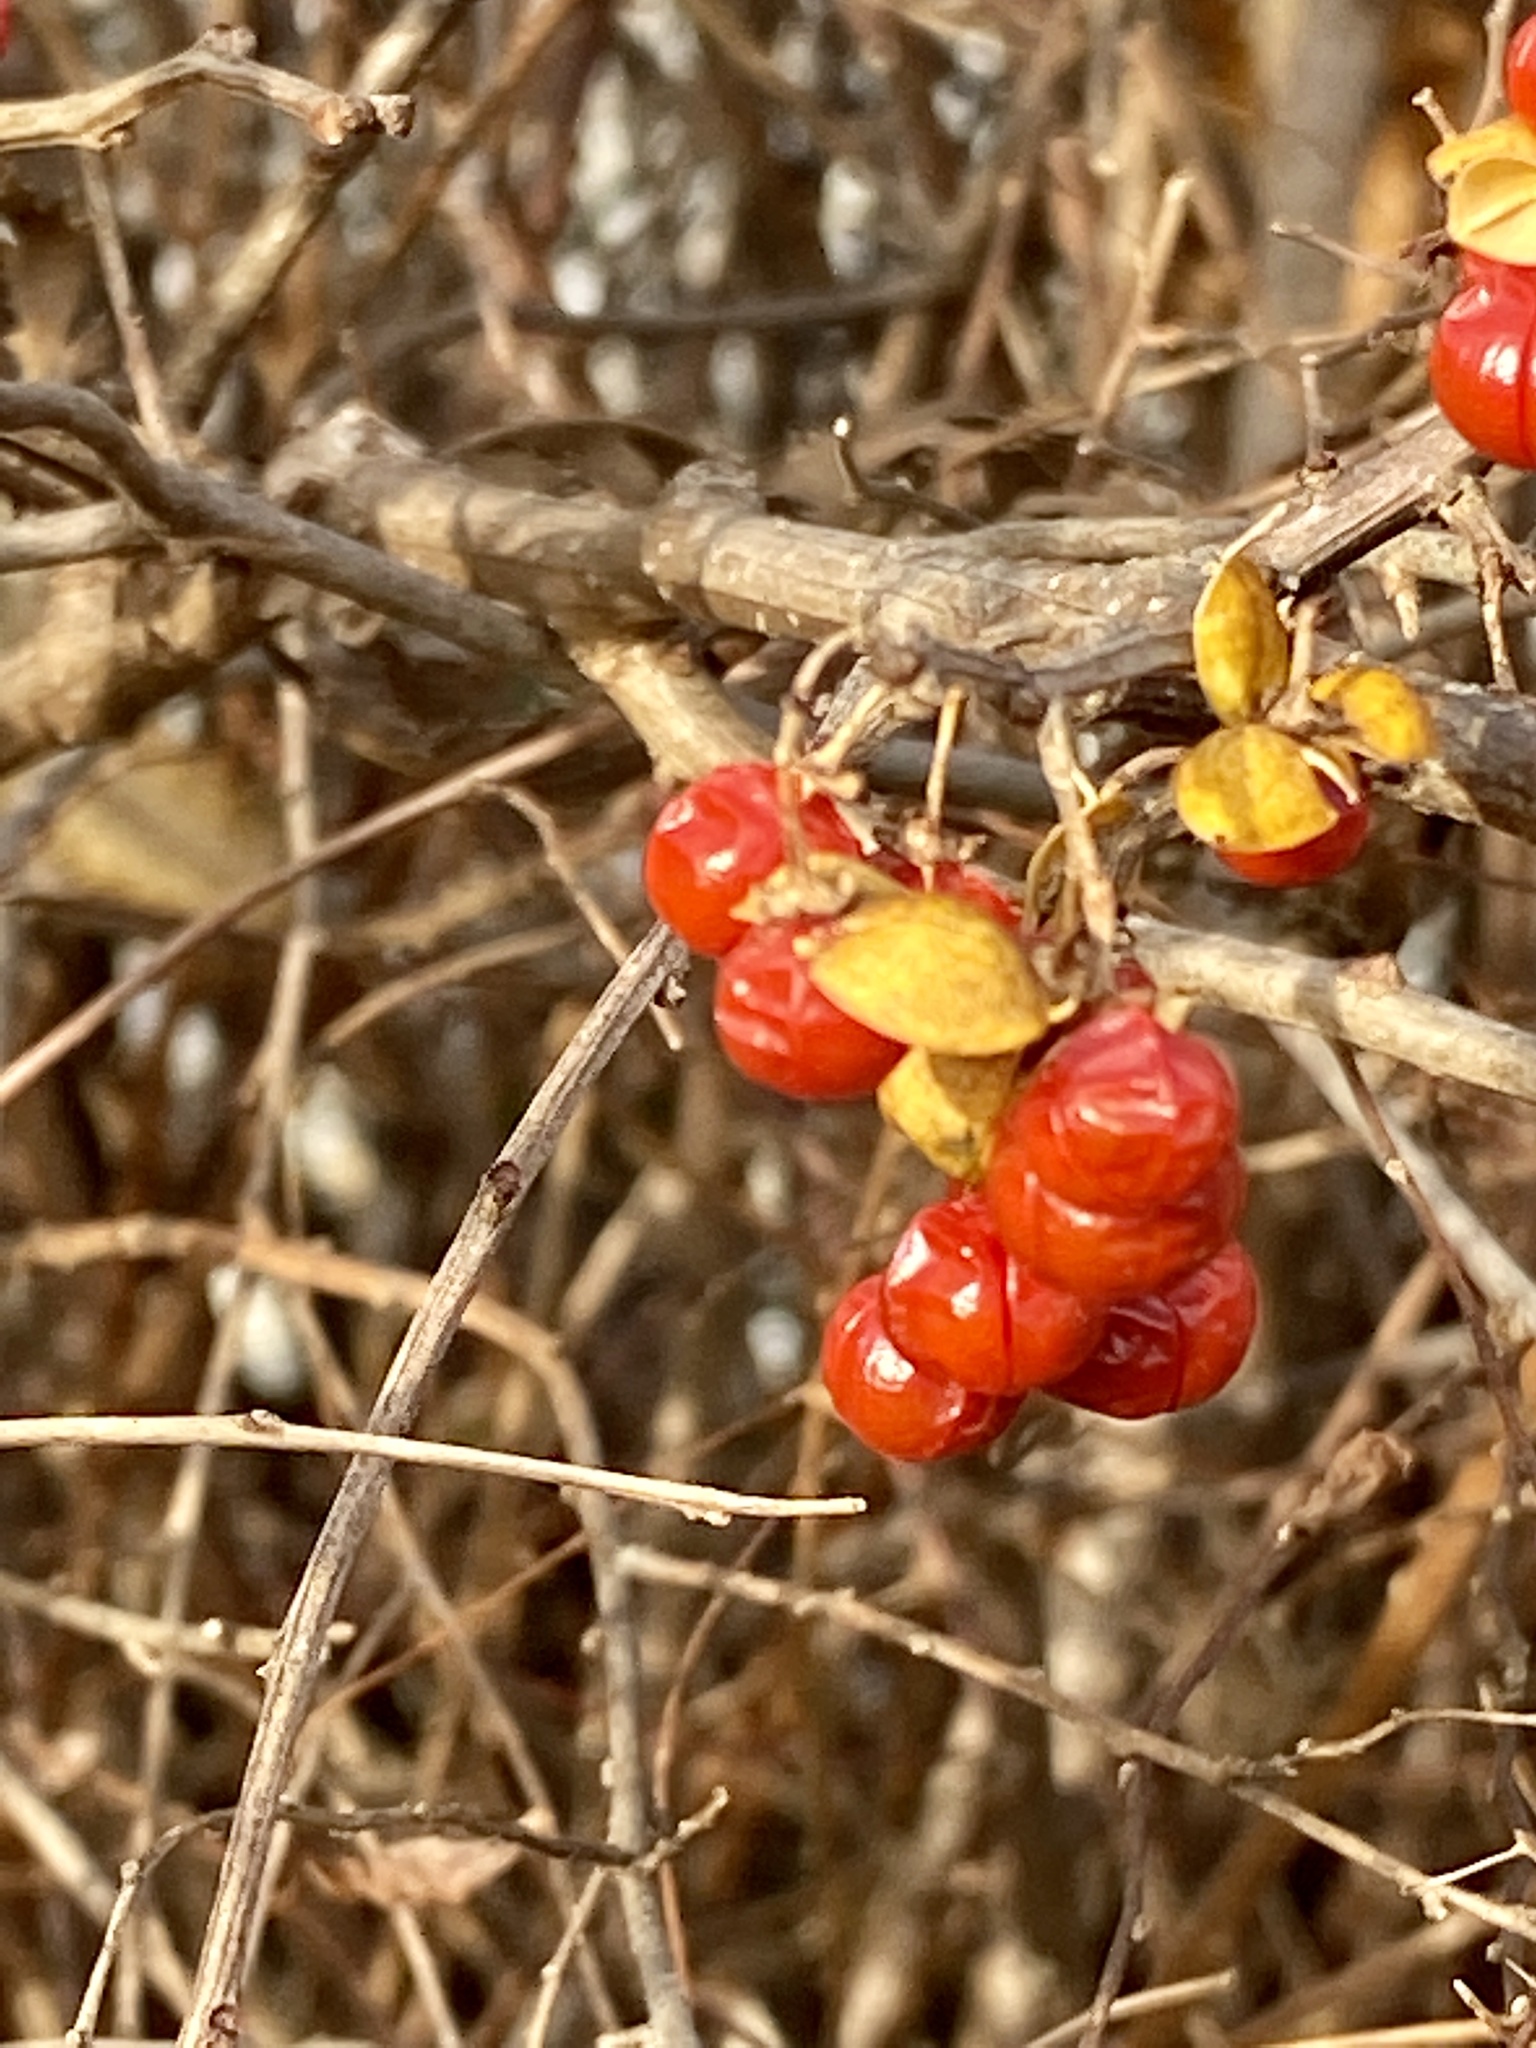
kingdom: Plantae
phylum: Tracheophyta
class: Magnoliopsida
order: Celastrales
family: Celastraceae
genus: Celastrus
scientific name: Celastrus orbiculatus
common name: Oriental bittersweet
